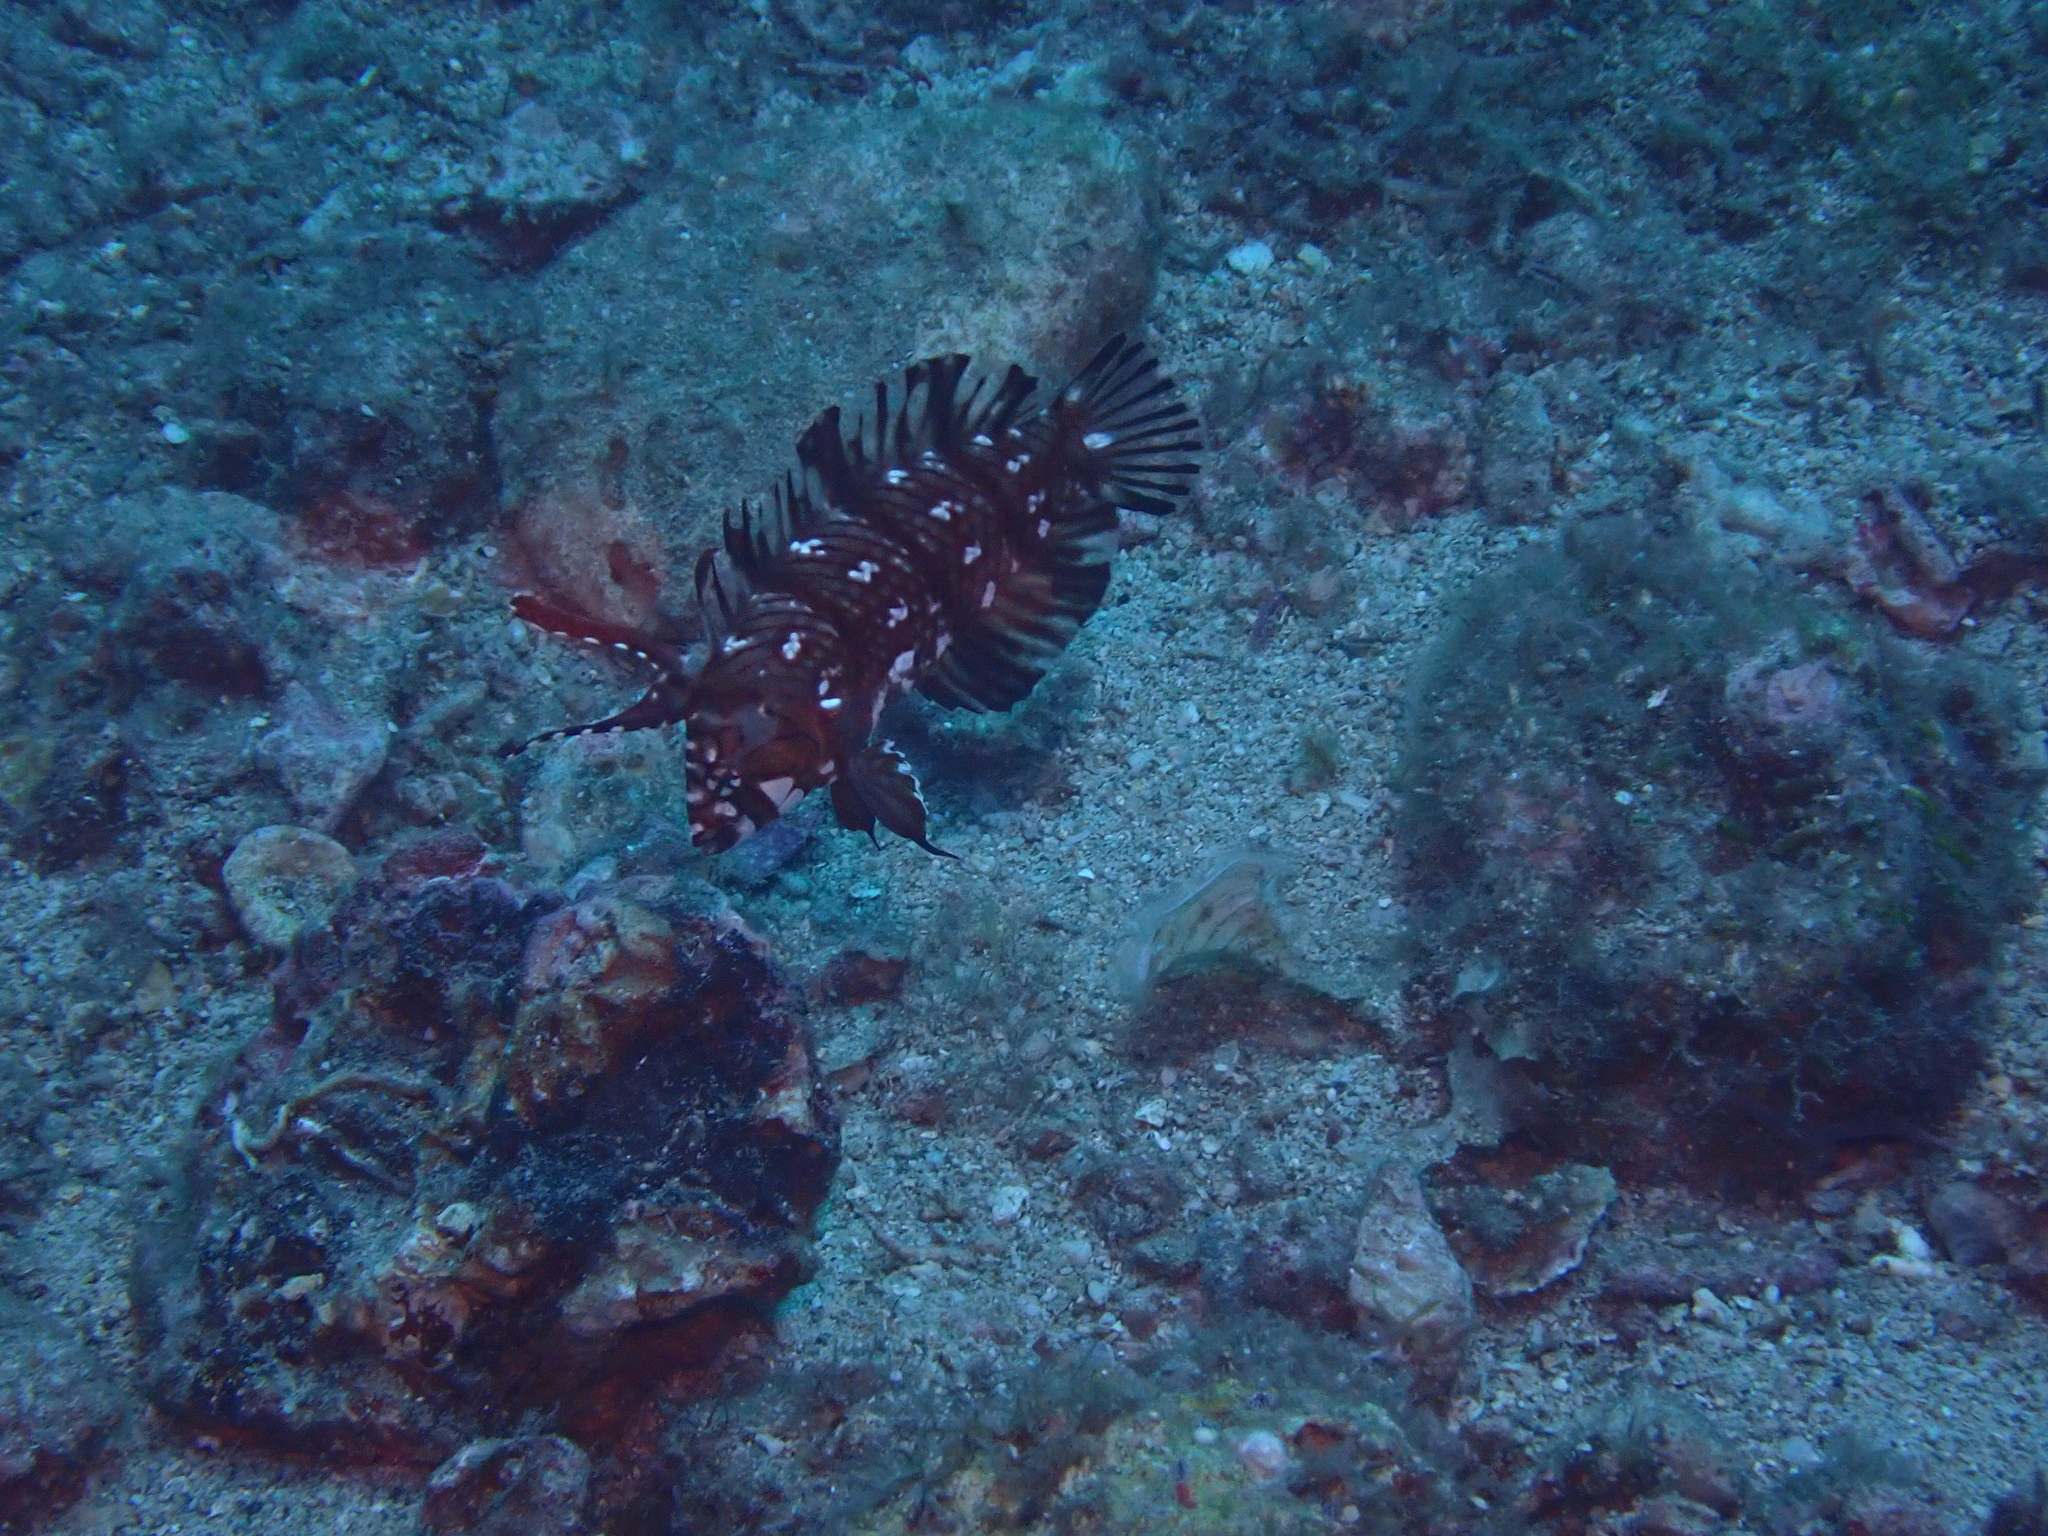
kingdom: Animalia
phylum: Chordata
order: Perciformes
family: Labridae
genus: Novaculichthys
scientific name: Novaculichthys taeniourus
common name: Rockmover wrasse
